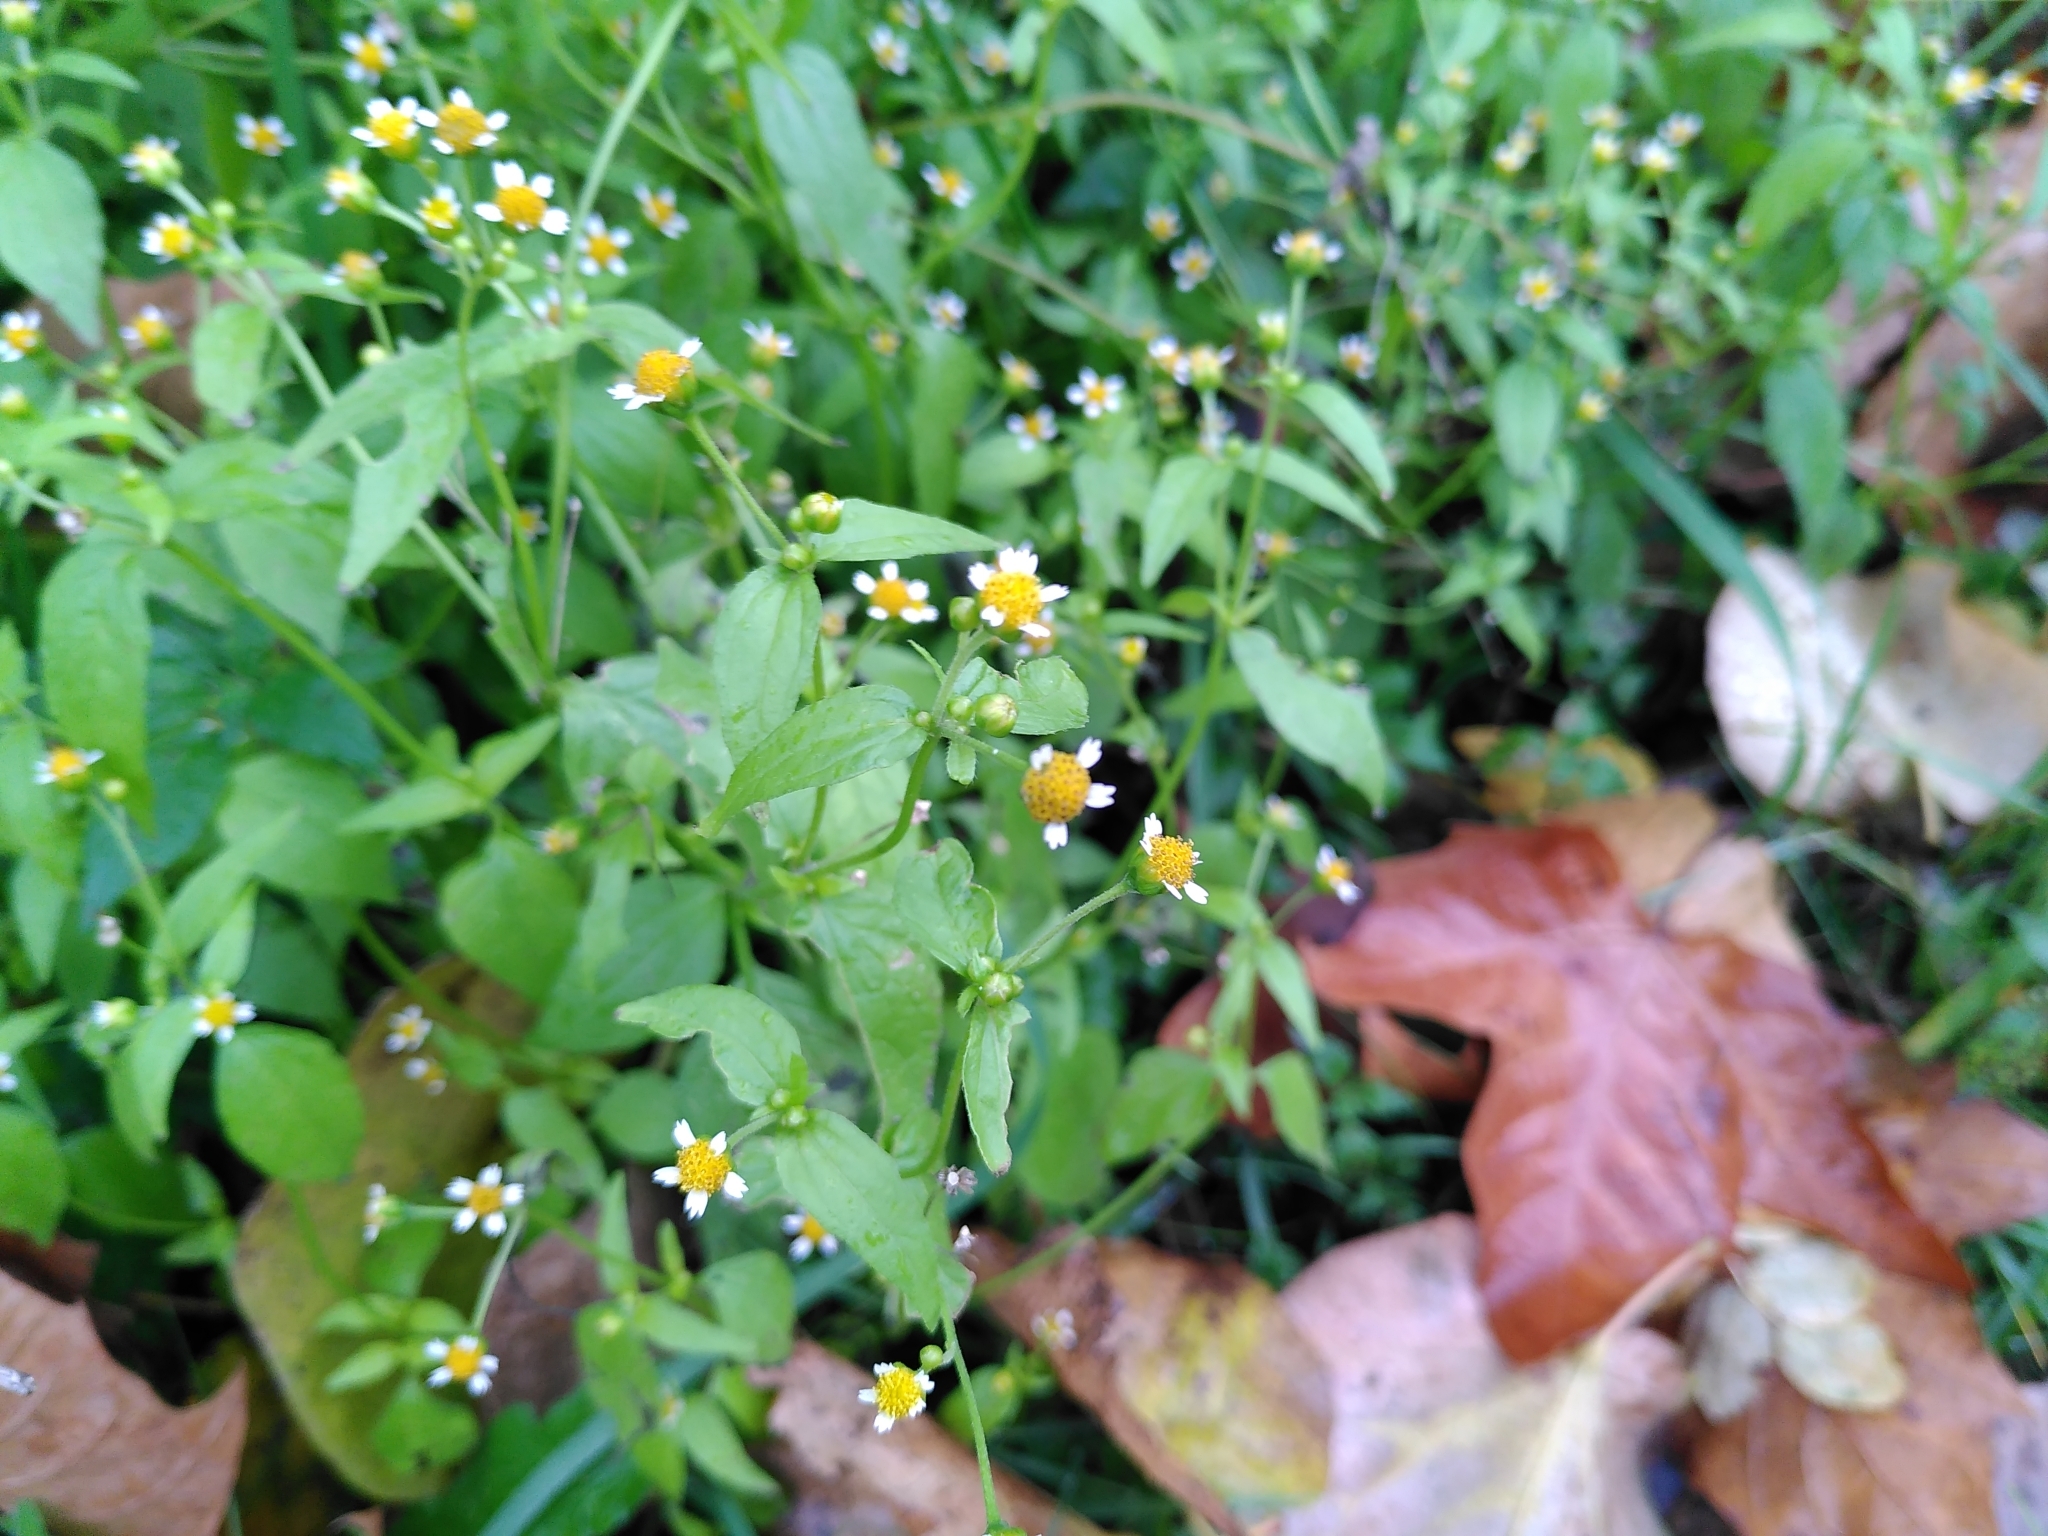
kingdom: Plantae
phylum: Tracheophyta
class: Magnoliopsida
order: Asterales
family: Asteraceae
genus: Galinsoga
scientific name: Galinsoga parviflora
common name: Gallant soldier
